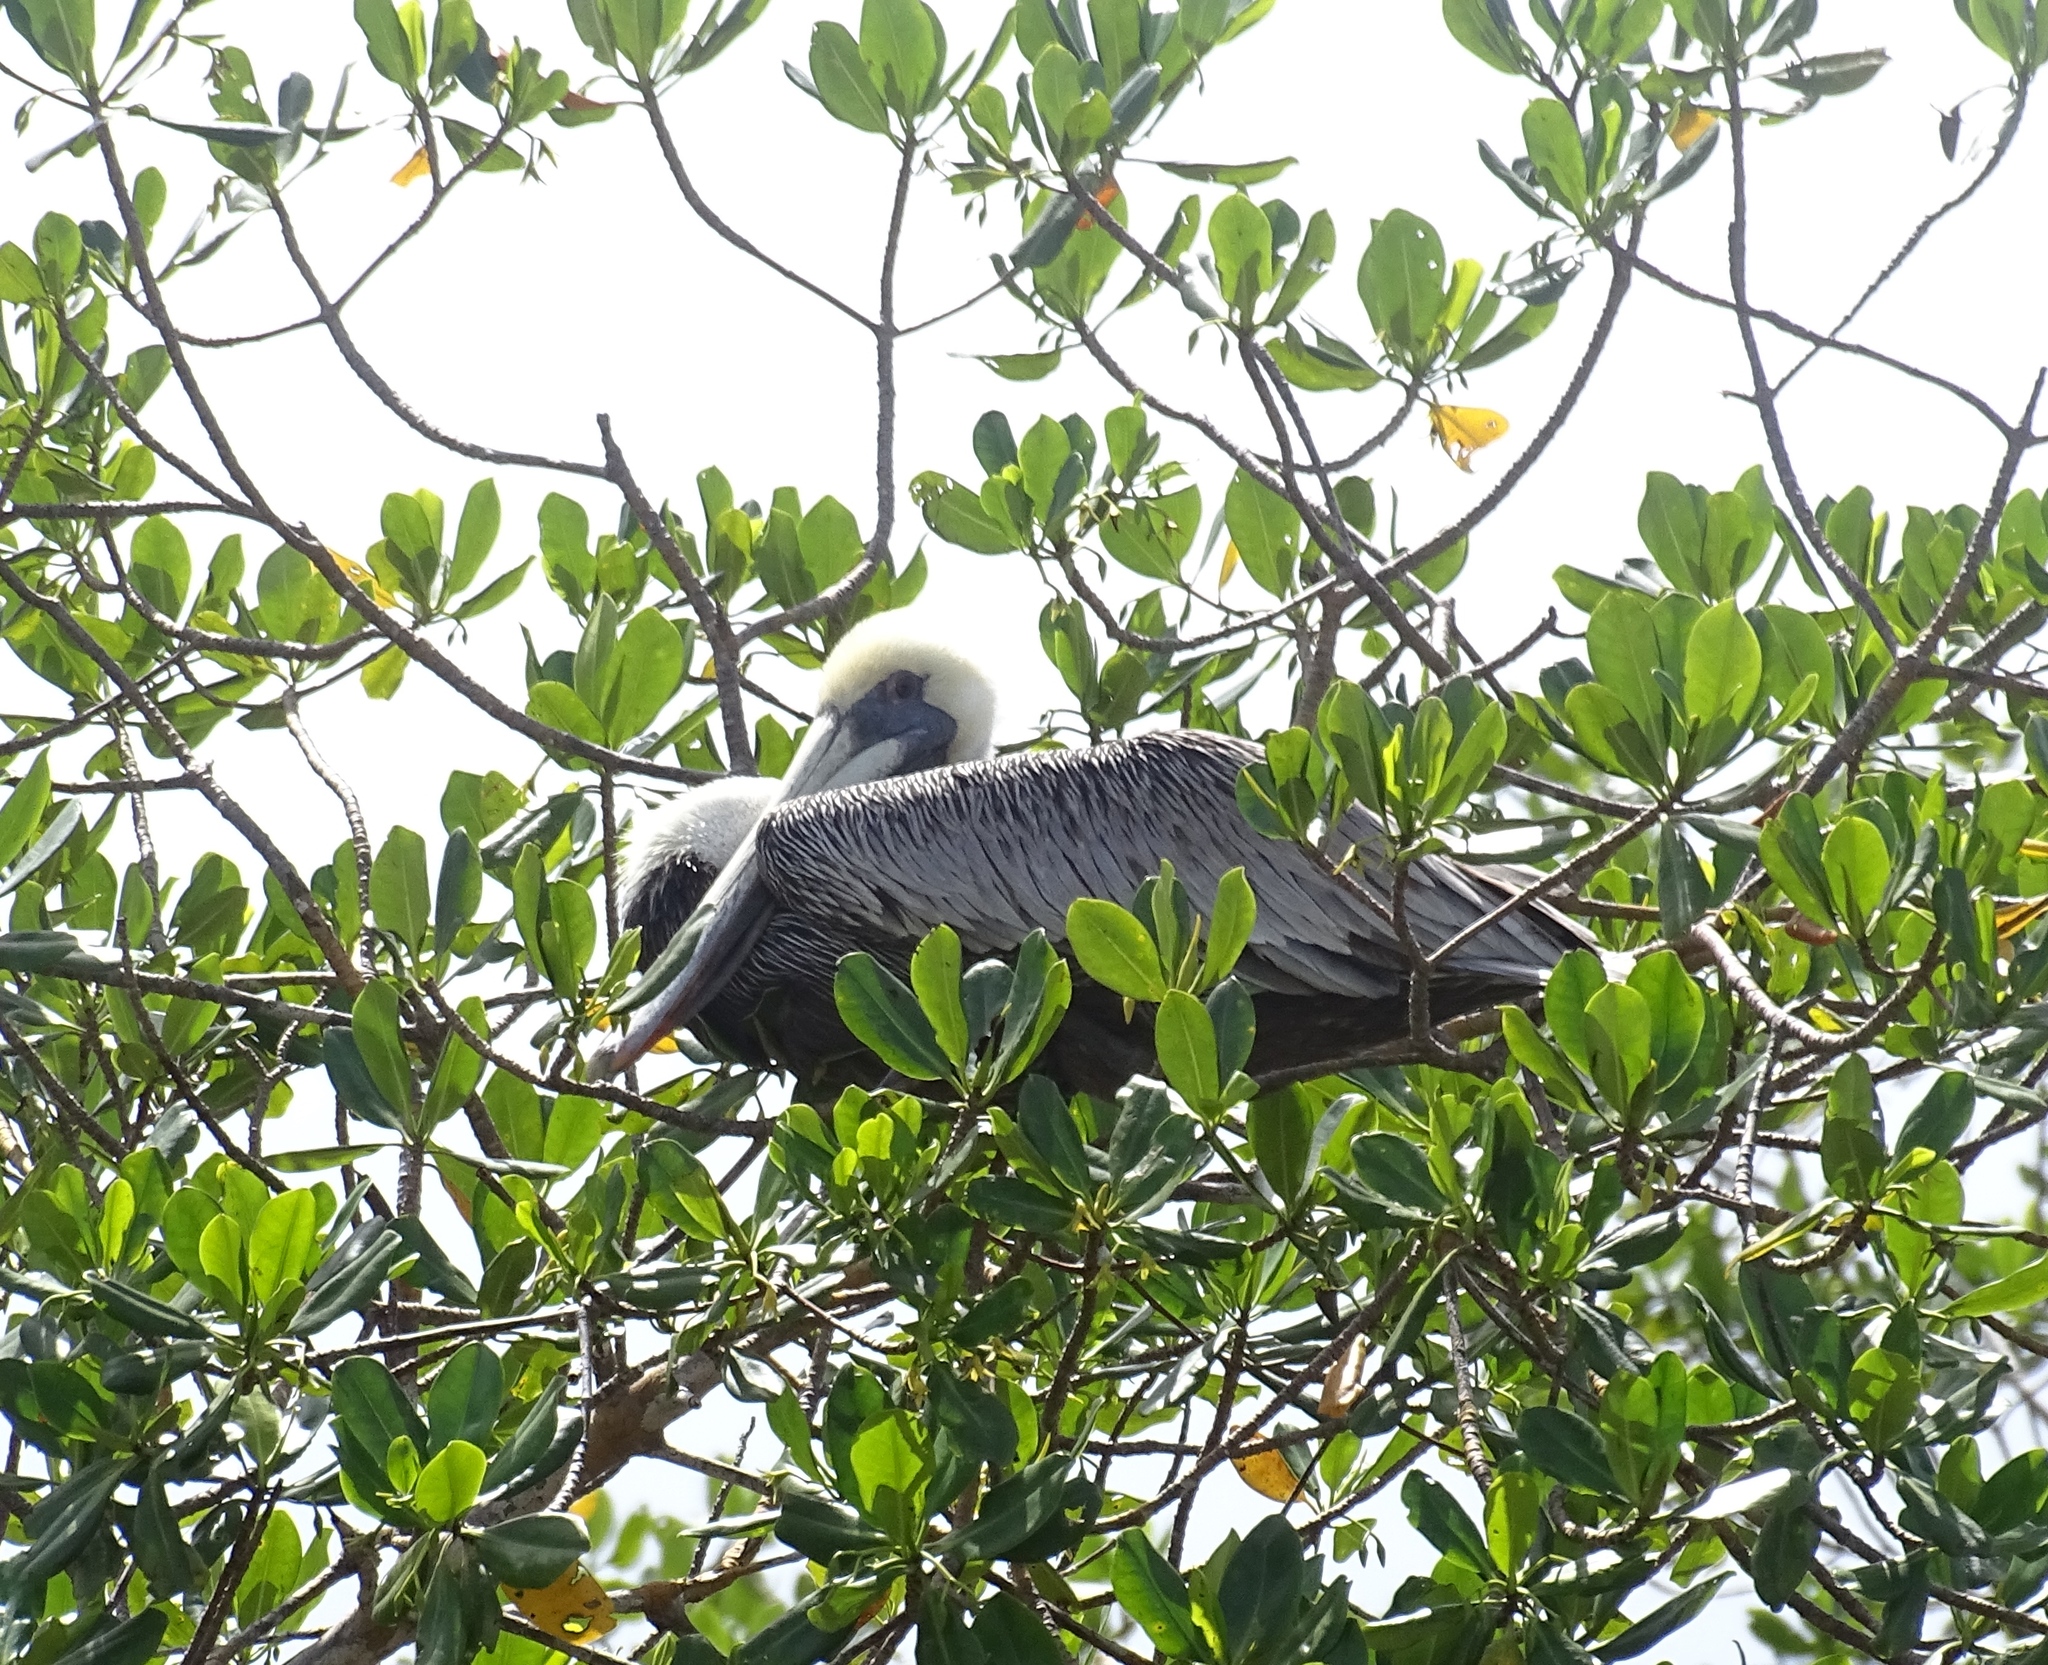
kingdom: Animalia
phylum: Chordata
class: Aves
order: Pelecaniformes
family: Pelecanidae
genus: Pelecanus
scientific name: Pelecanus occidentalis
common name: Brown pelican
